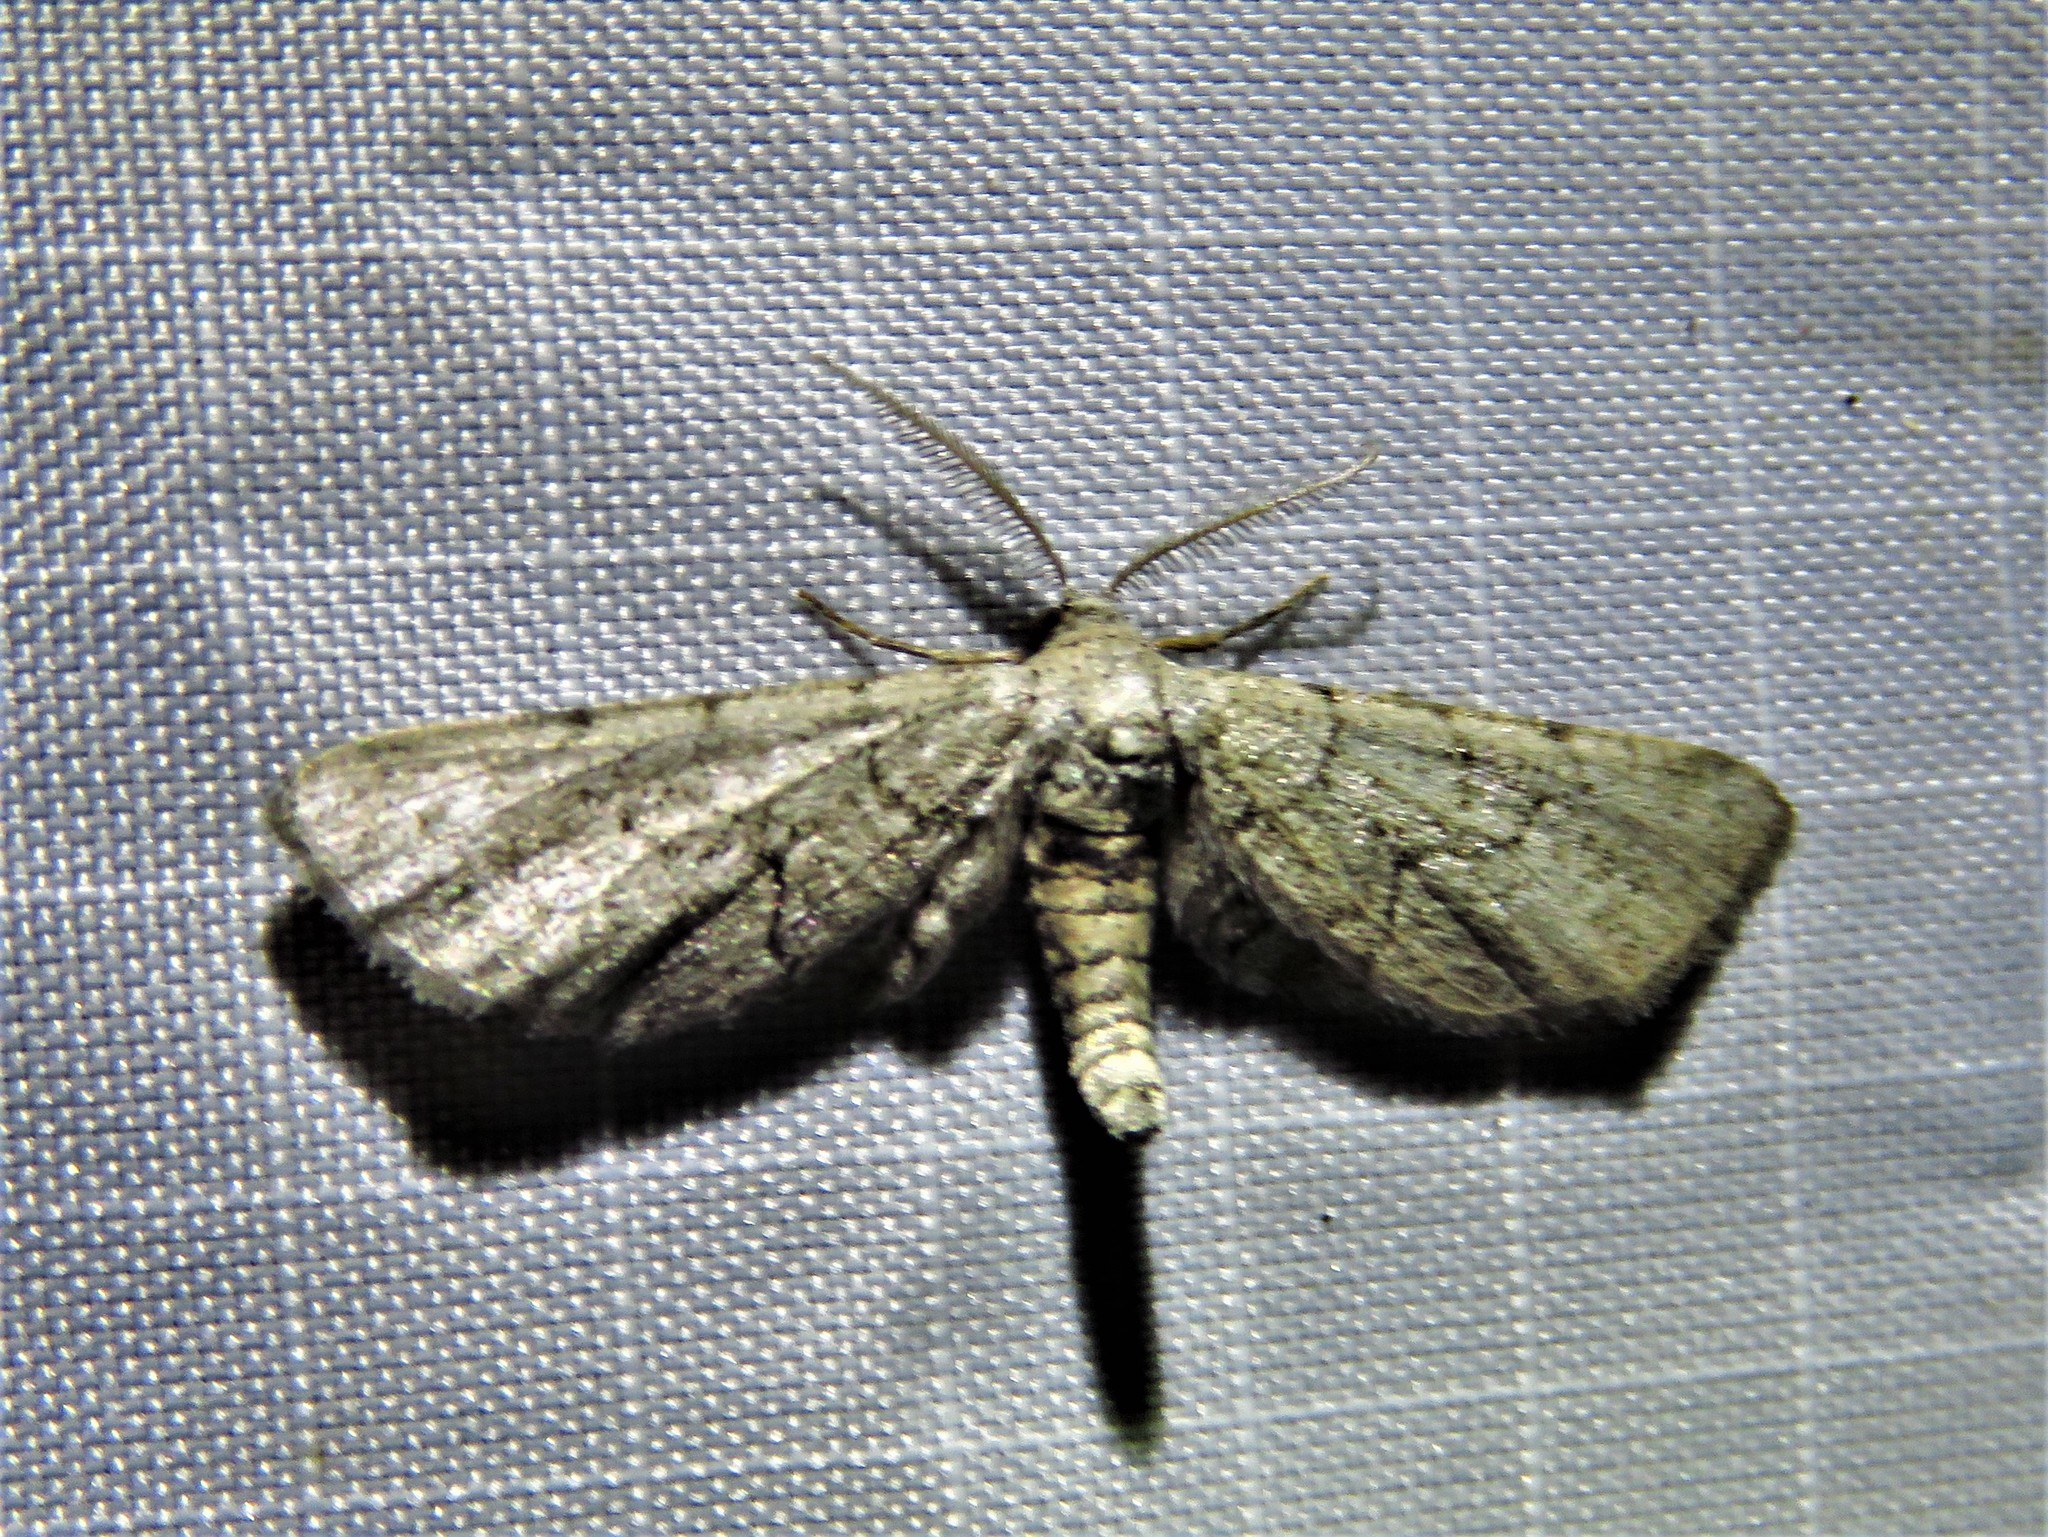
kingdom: Animalia
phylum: Arthropoda
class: Insecta
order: Lepidoptera
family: Geometridae
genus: Exelis
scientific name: Exelis ophiurus
